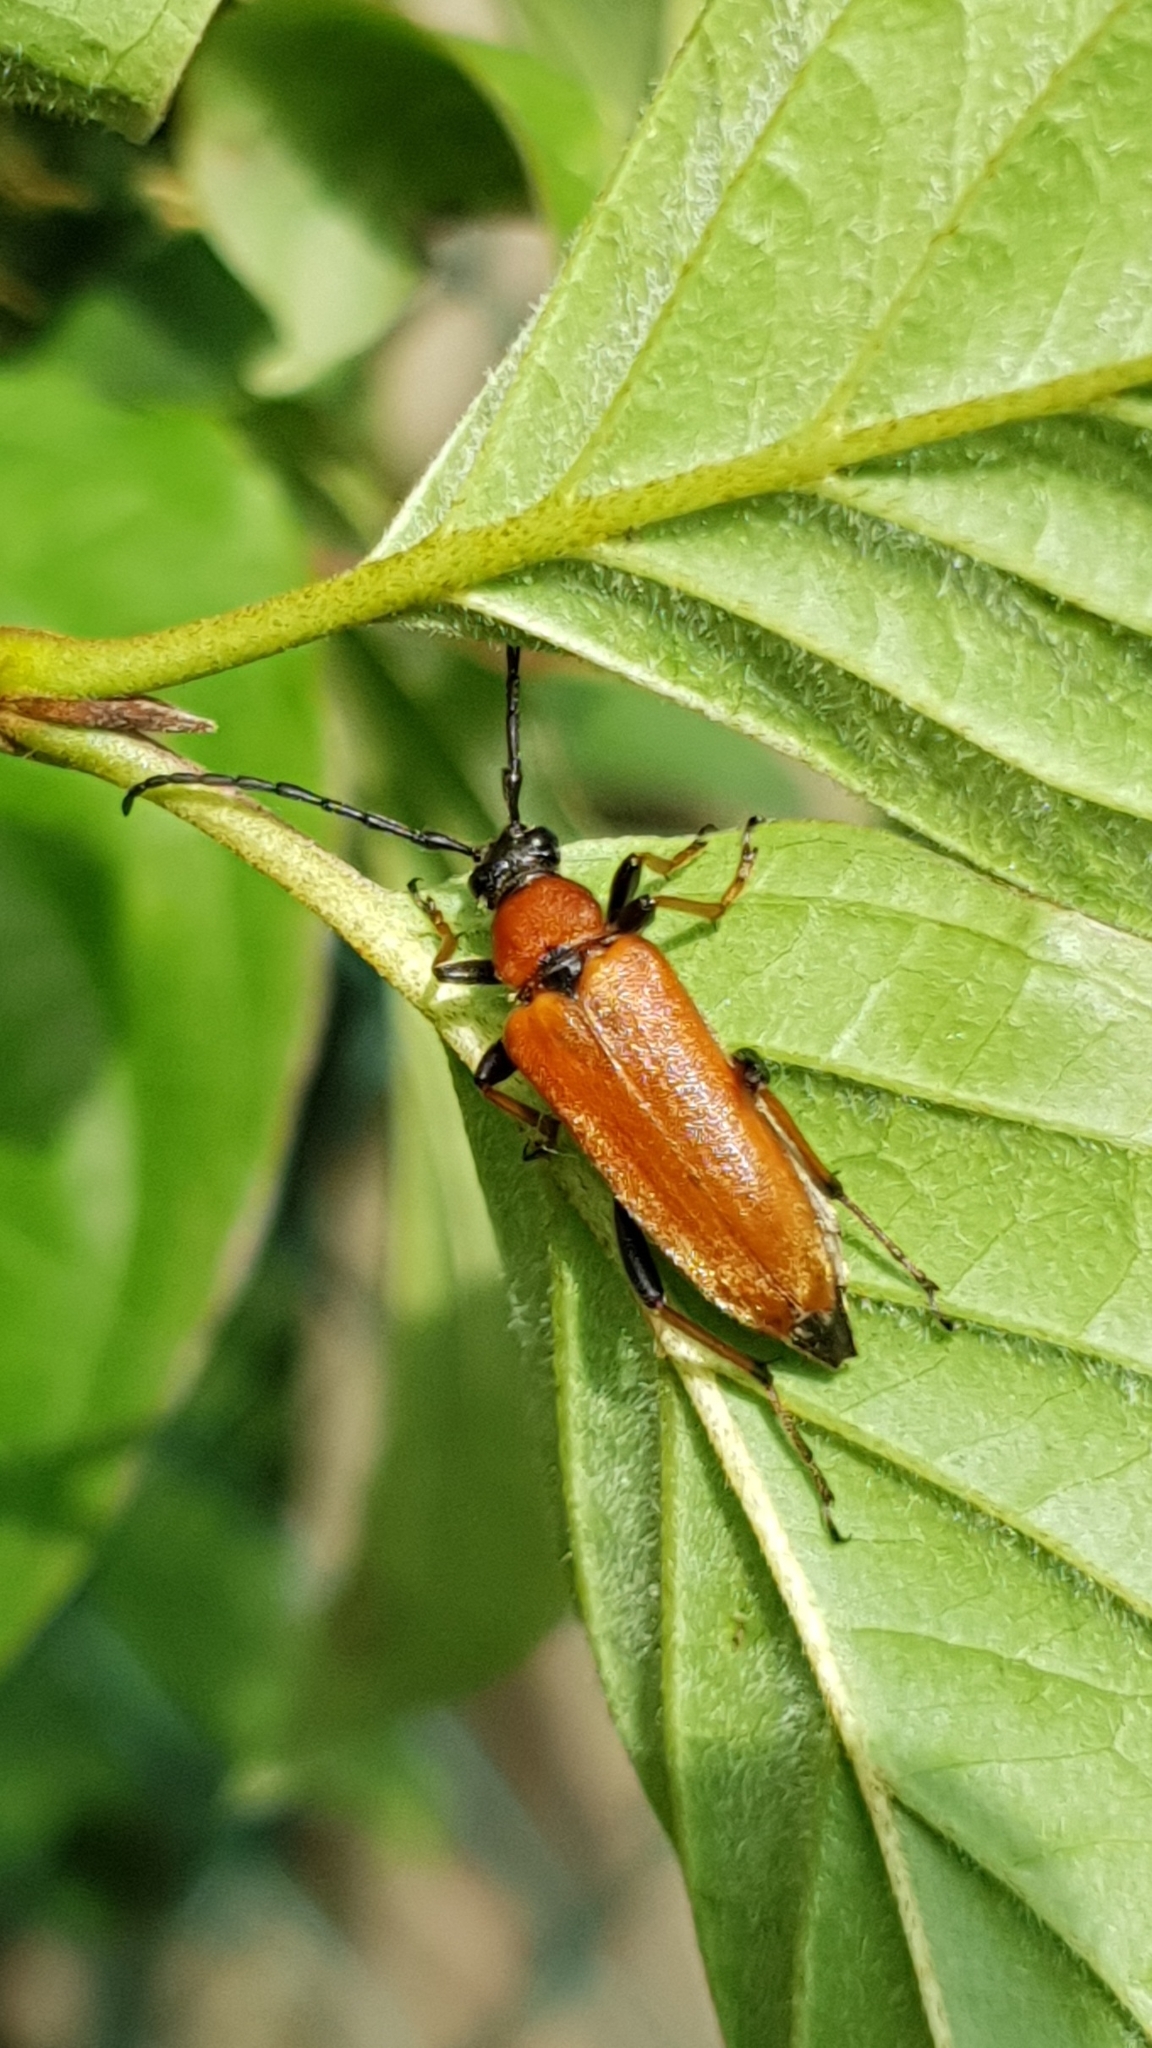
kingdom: Animalia
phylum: Arthropoda
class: Insecta
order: Coleoptera
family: Cerambycidae
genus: Stictoleptura
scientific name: Stictoleptura rubra
